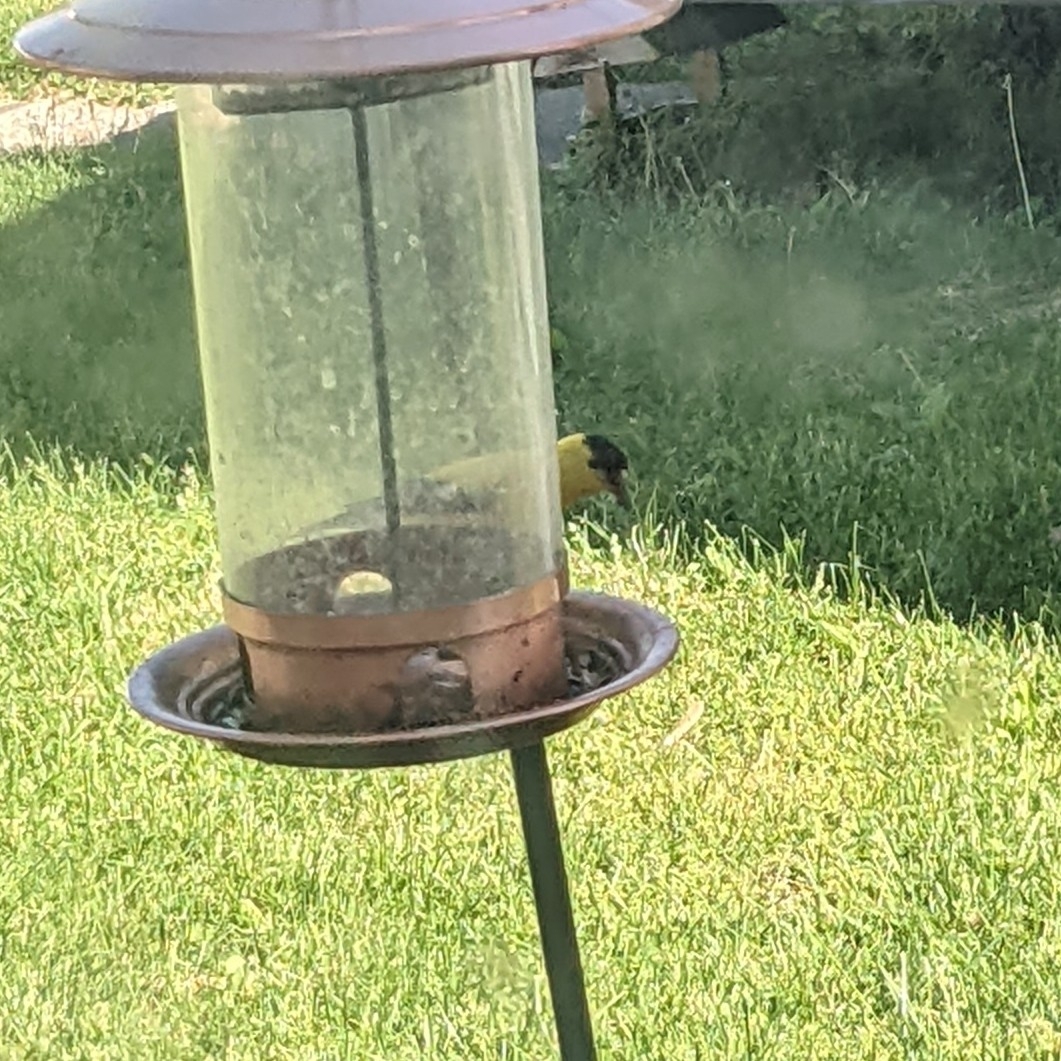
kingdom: Animalia
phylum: Chordata
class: Aves
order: Passeriformes
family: Fringillidae
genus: Spinus
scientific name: Spinus tristis
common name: American goldfinch
